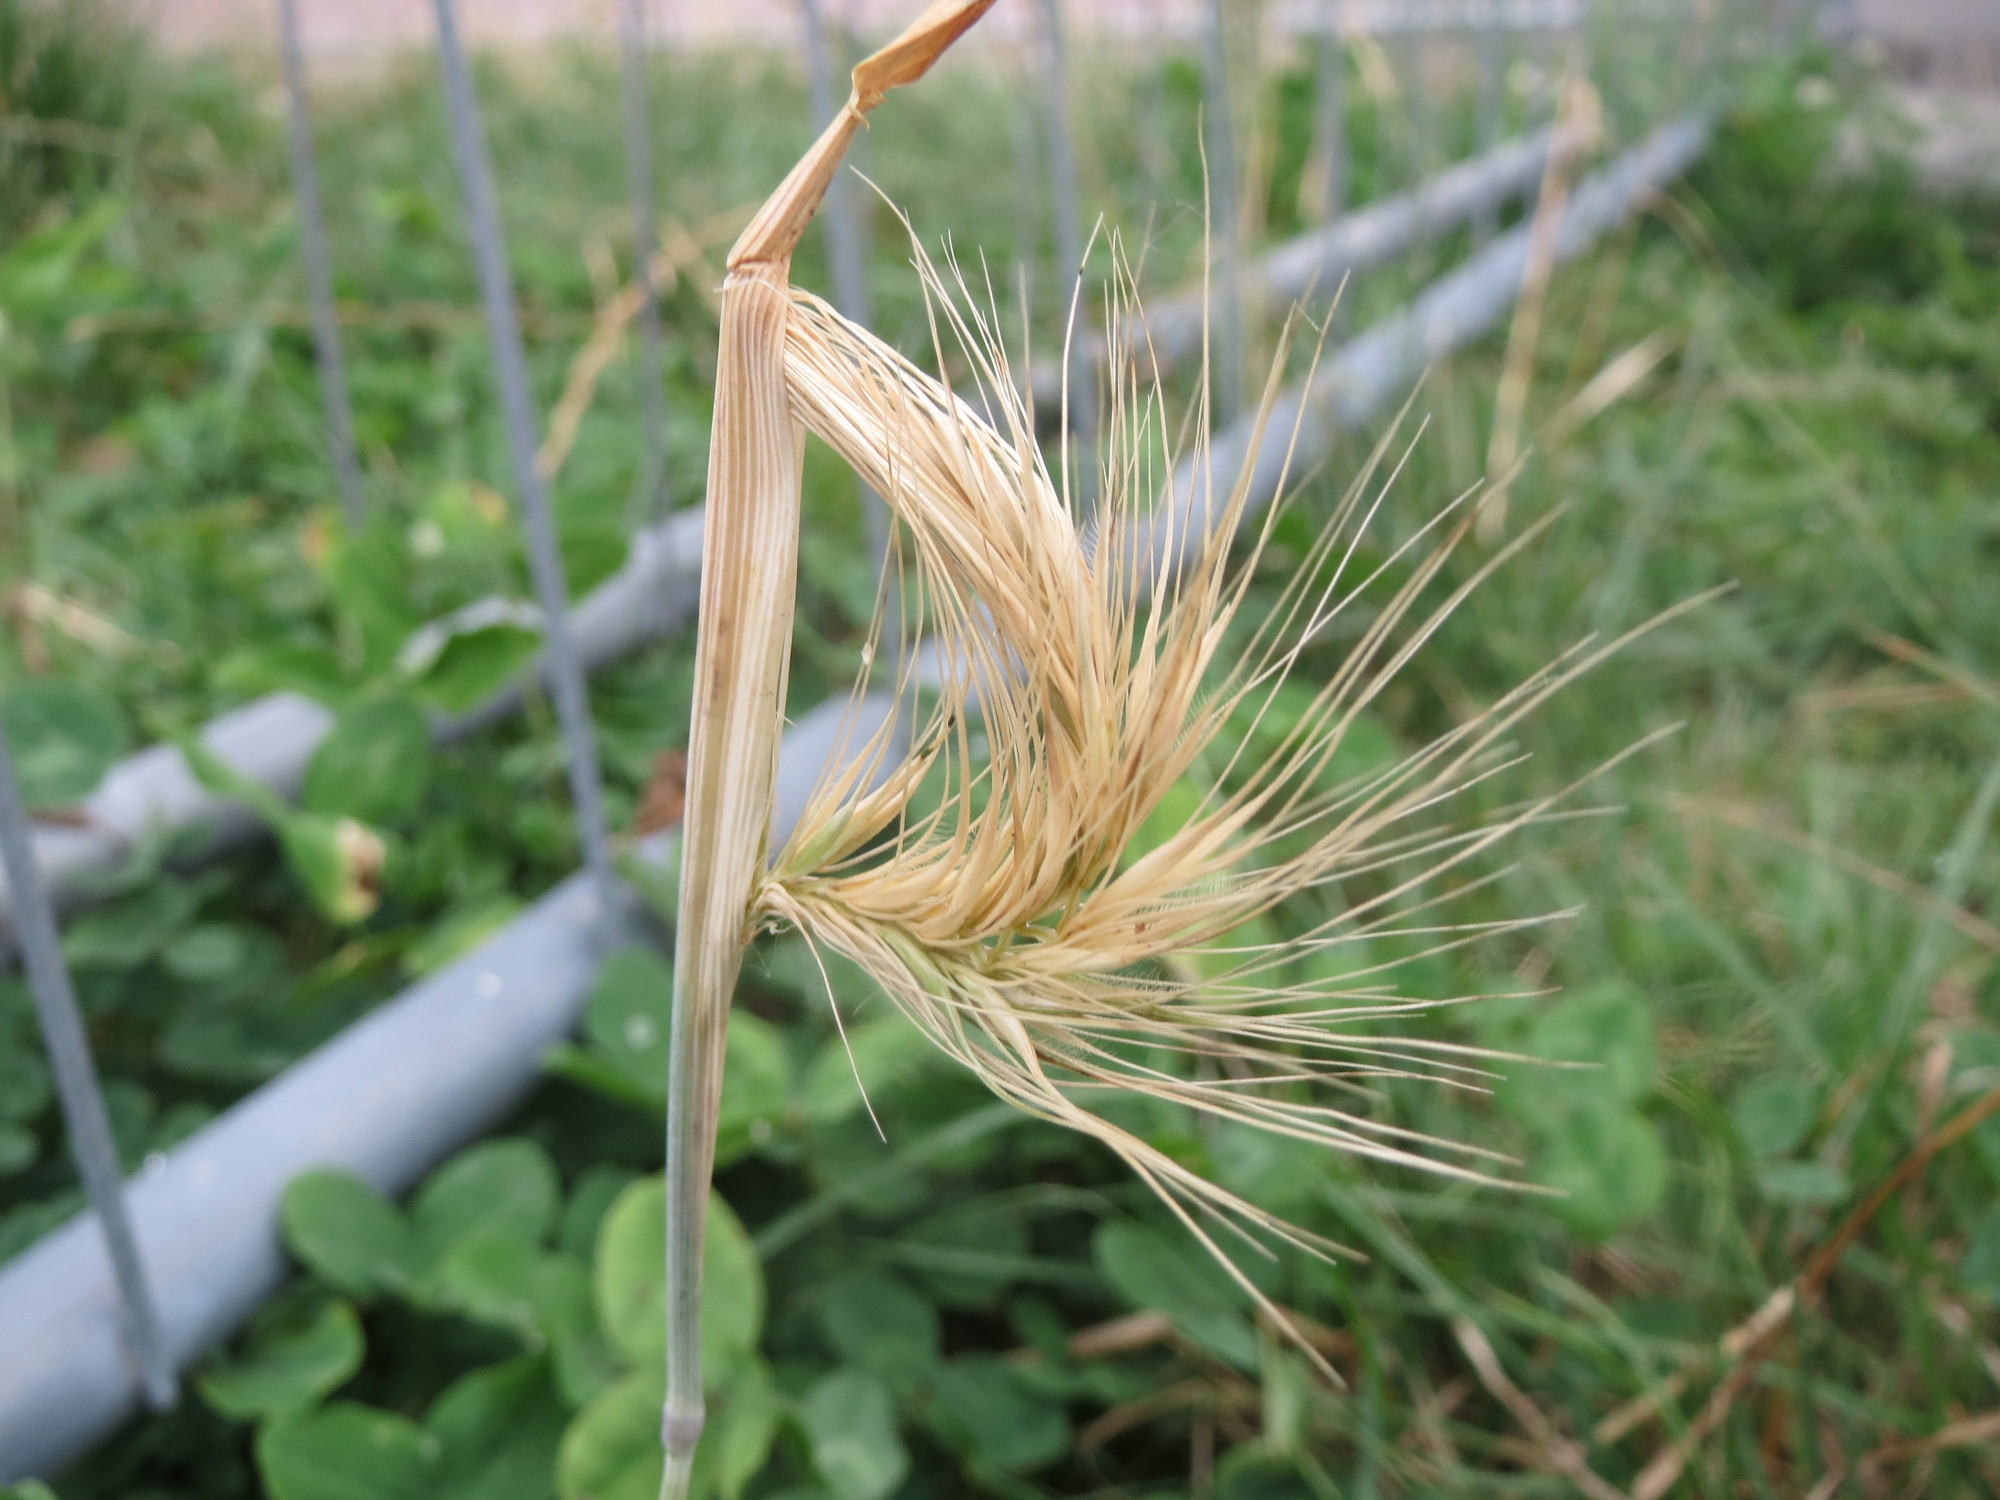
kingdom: Plantae
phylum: Tracheophyta
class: Liliopsida
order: Poales
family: Poaceae
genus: Hordeum
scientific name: Hordeum murinum
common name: Wall barley
